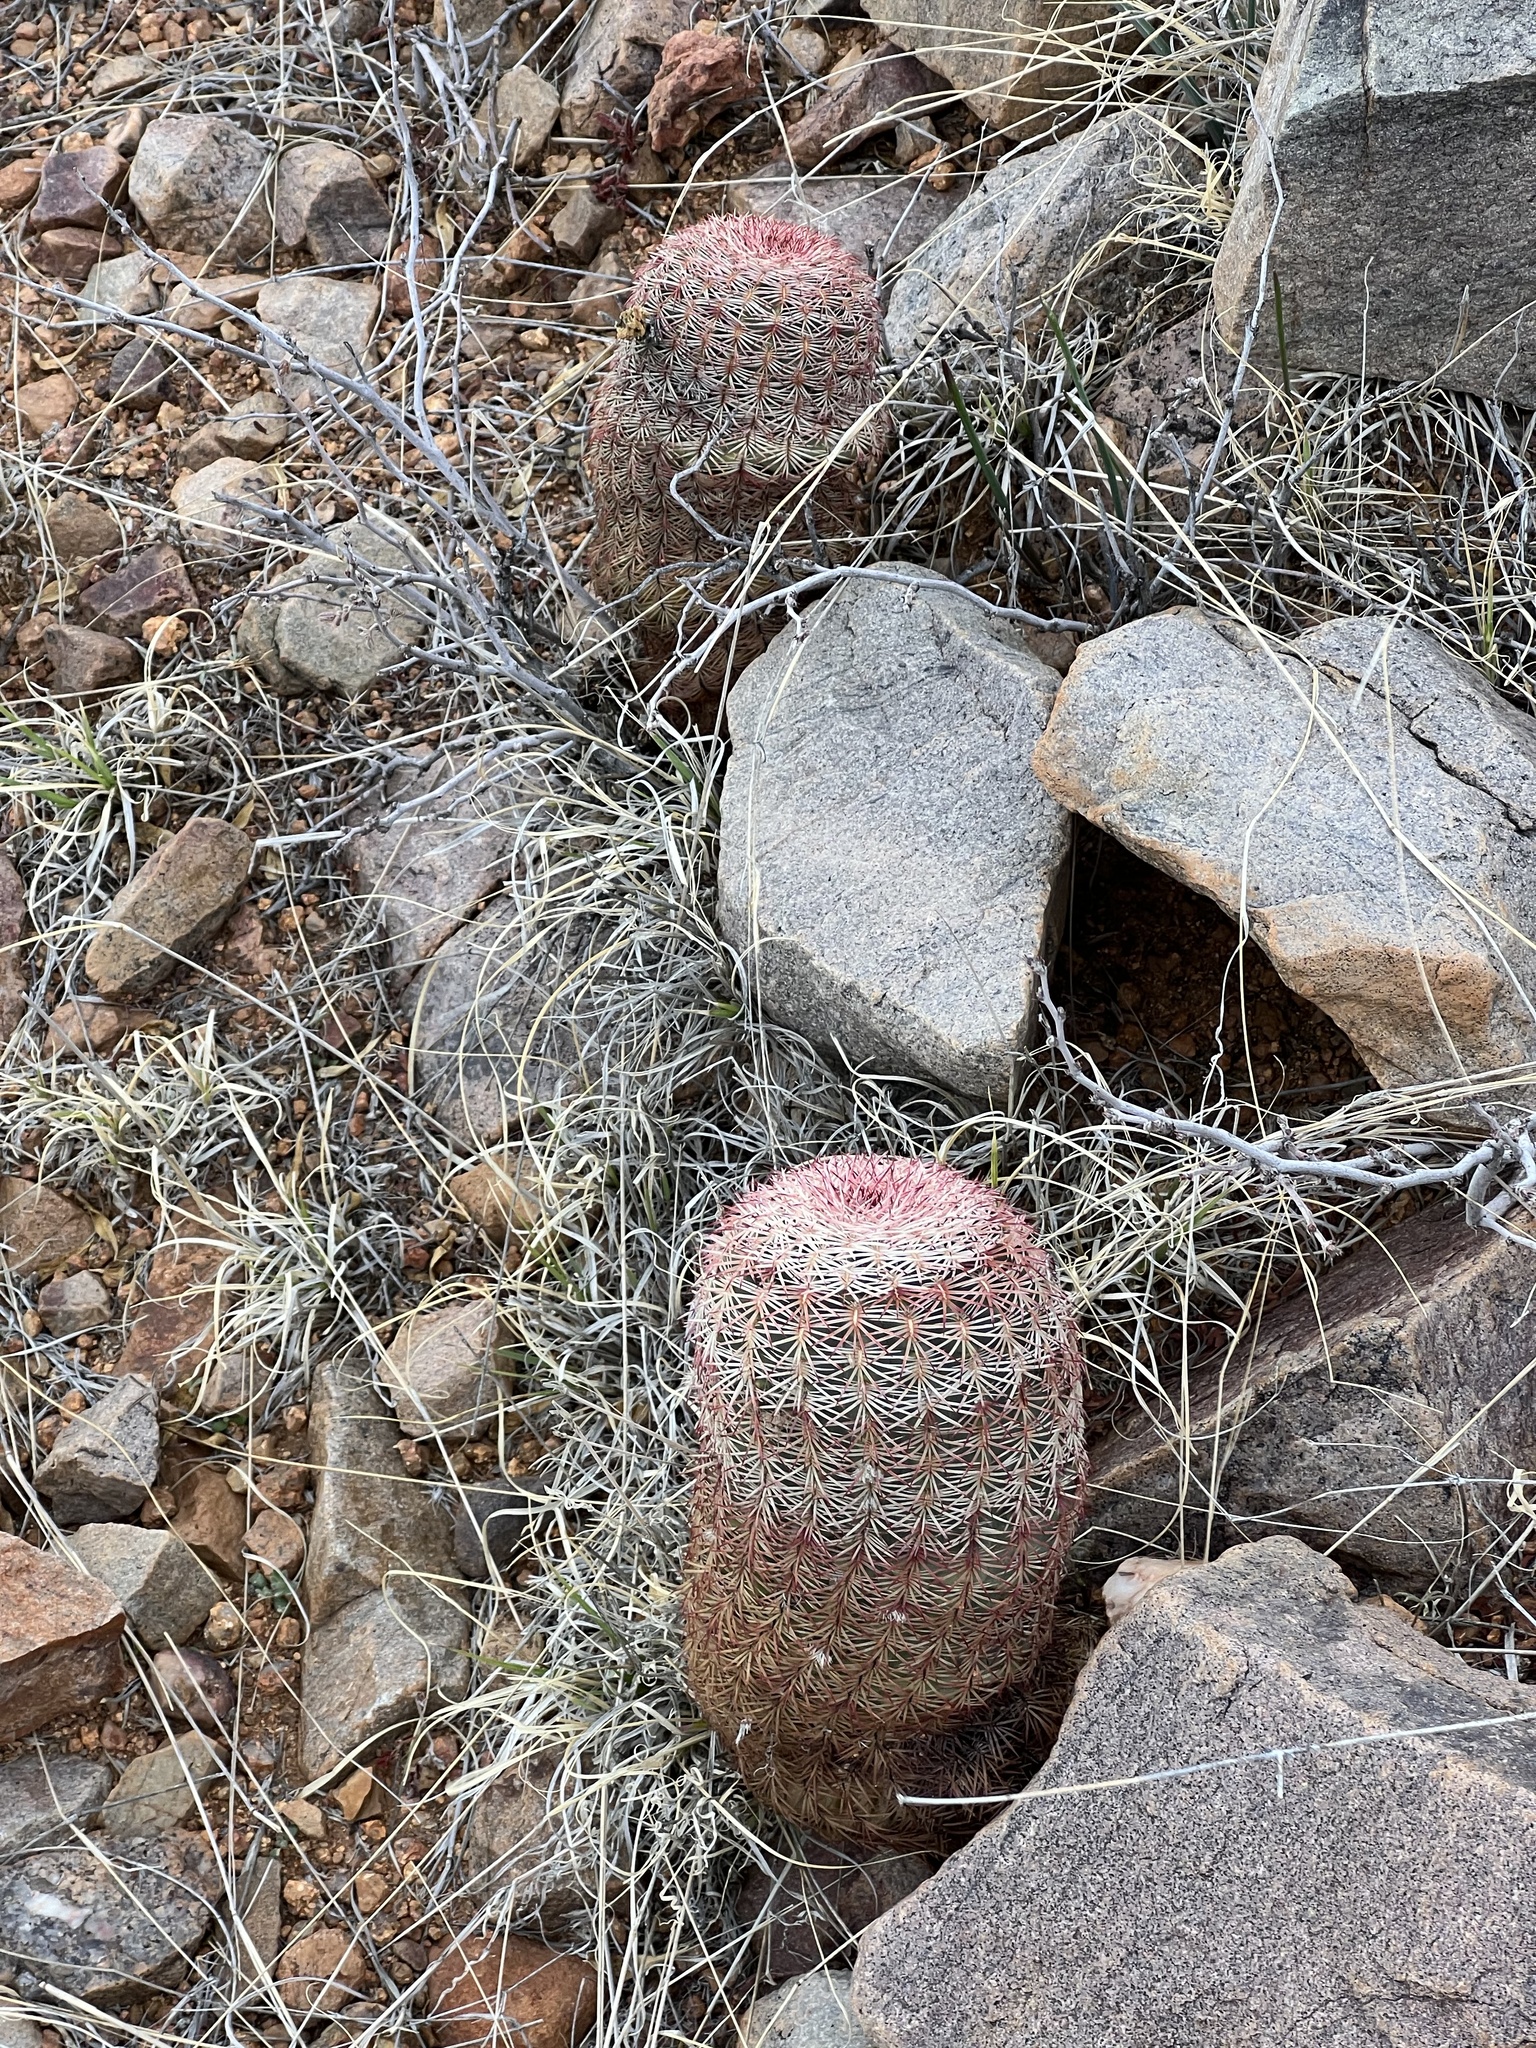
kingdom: Plantae
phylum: Tracheophyta
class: Magnoliopsida
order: Caryophyllales
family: Cactaceae
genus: Echinocereus
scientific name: Echinocereus rigidissimus
